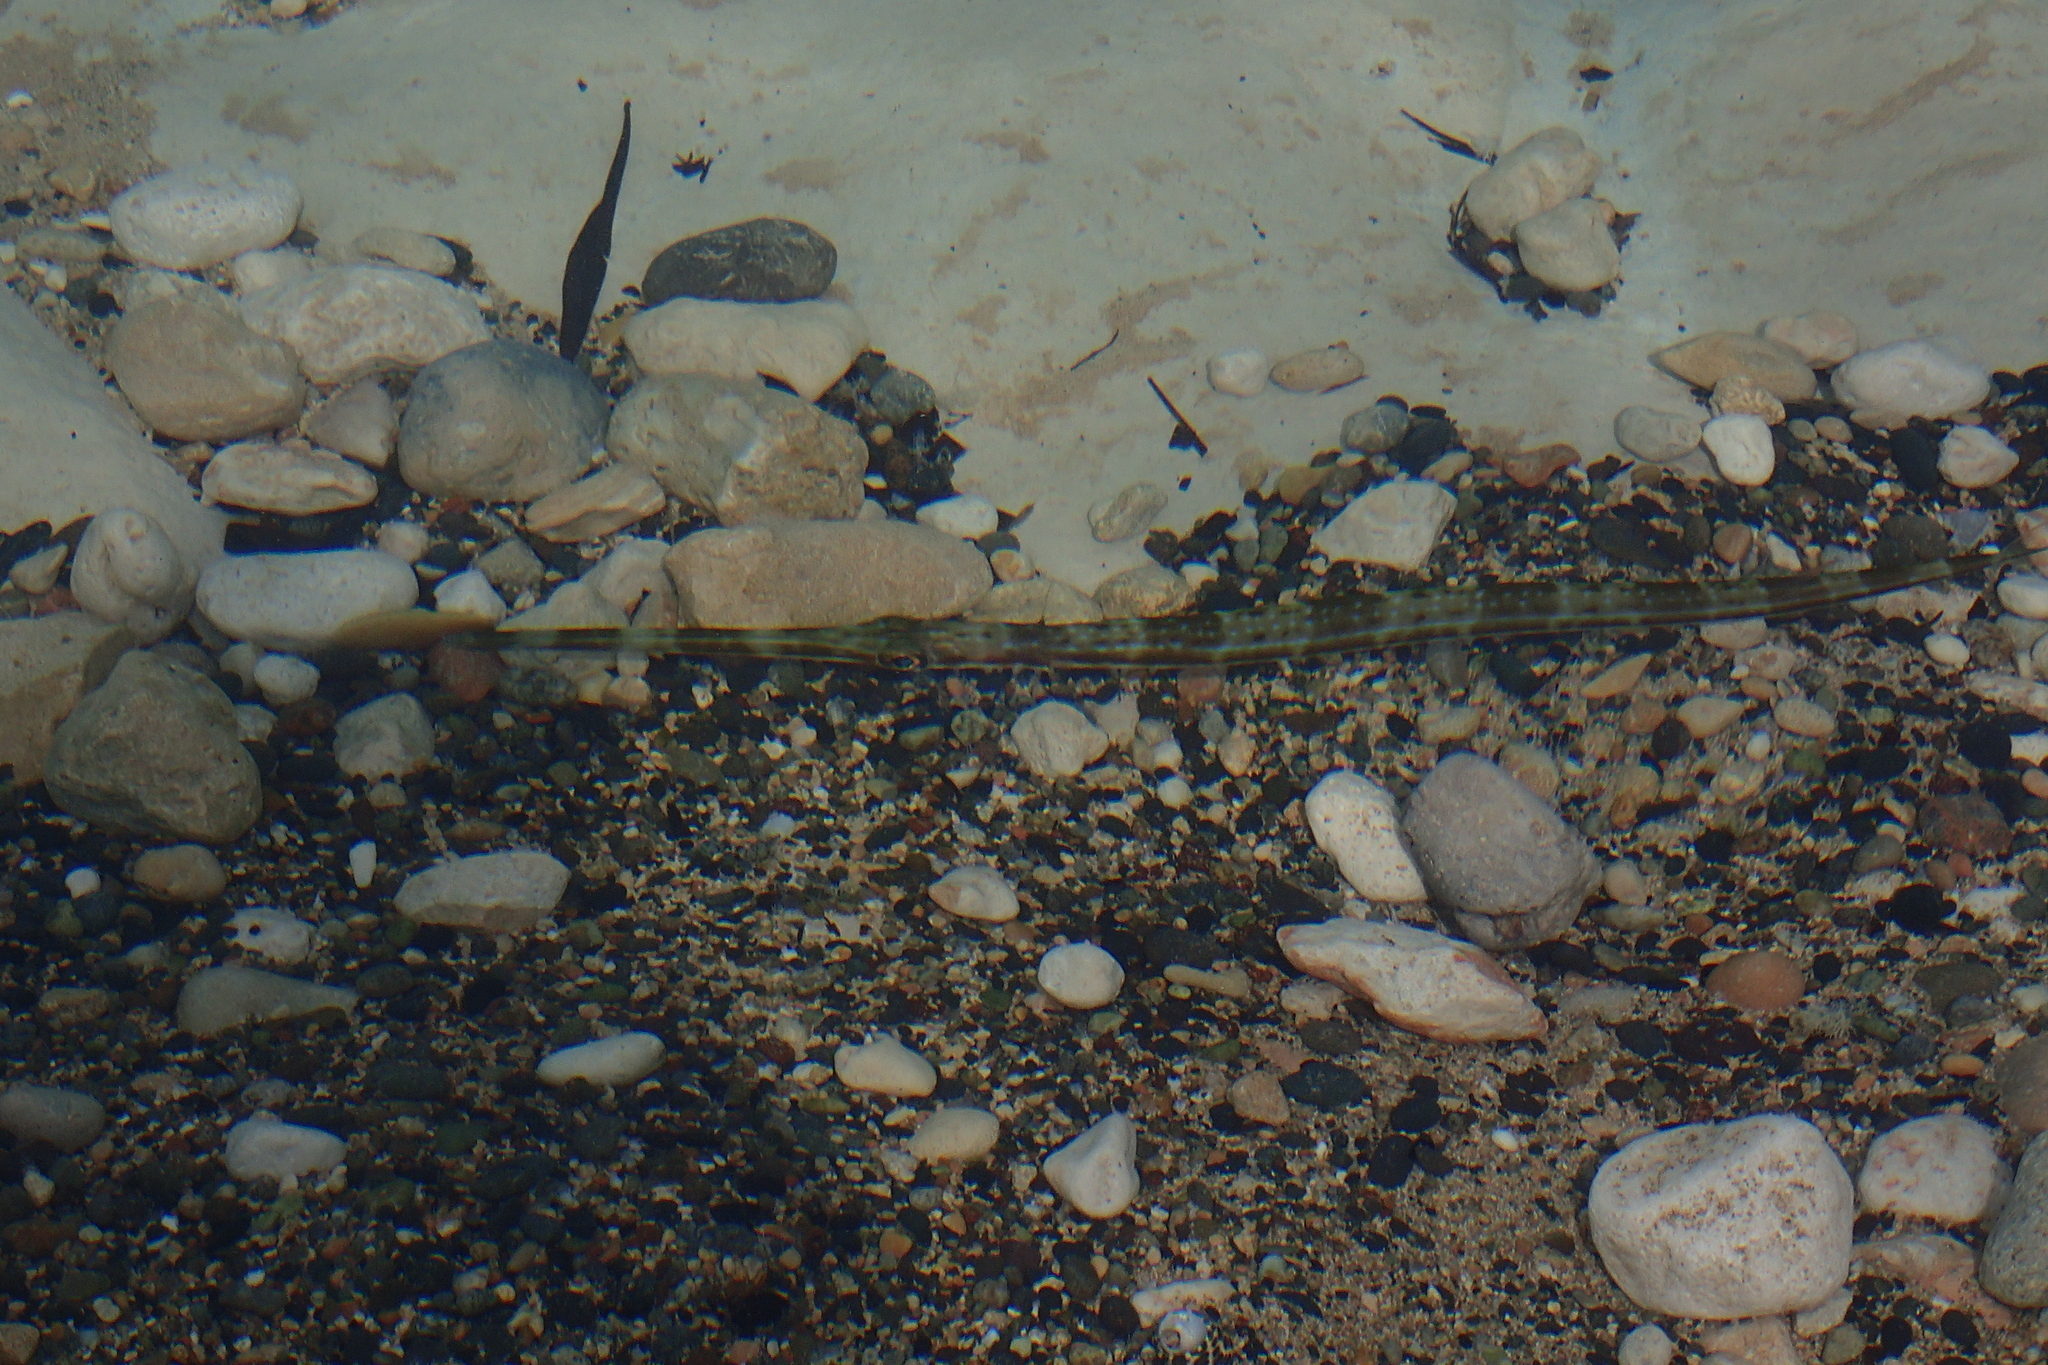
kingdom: Animalia
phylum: Chordata
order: Syngnathiformes
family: Fistulariidae
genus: Fistularia
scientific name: Fistularia commersonii
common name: Bluespotted cornetfish
